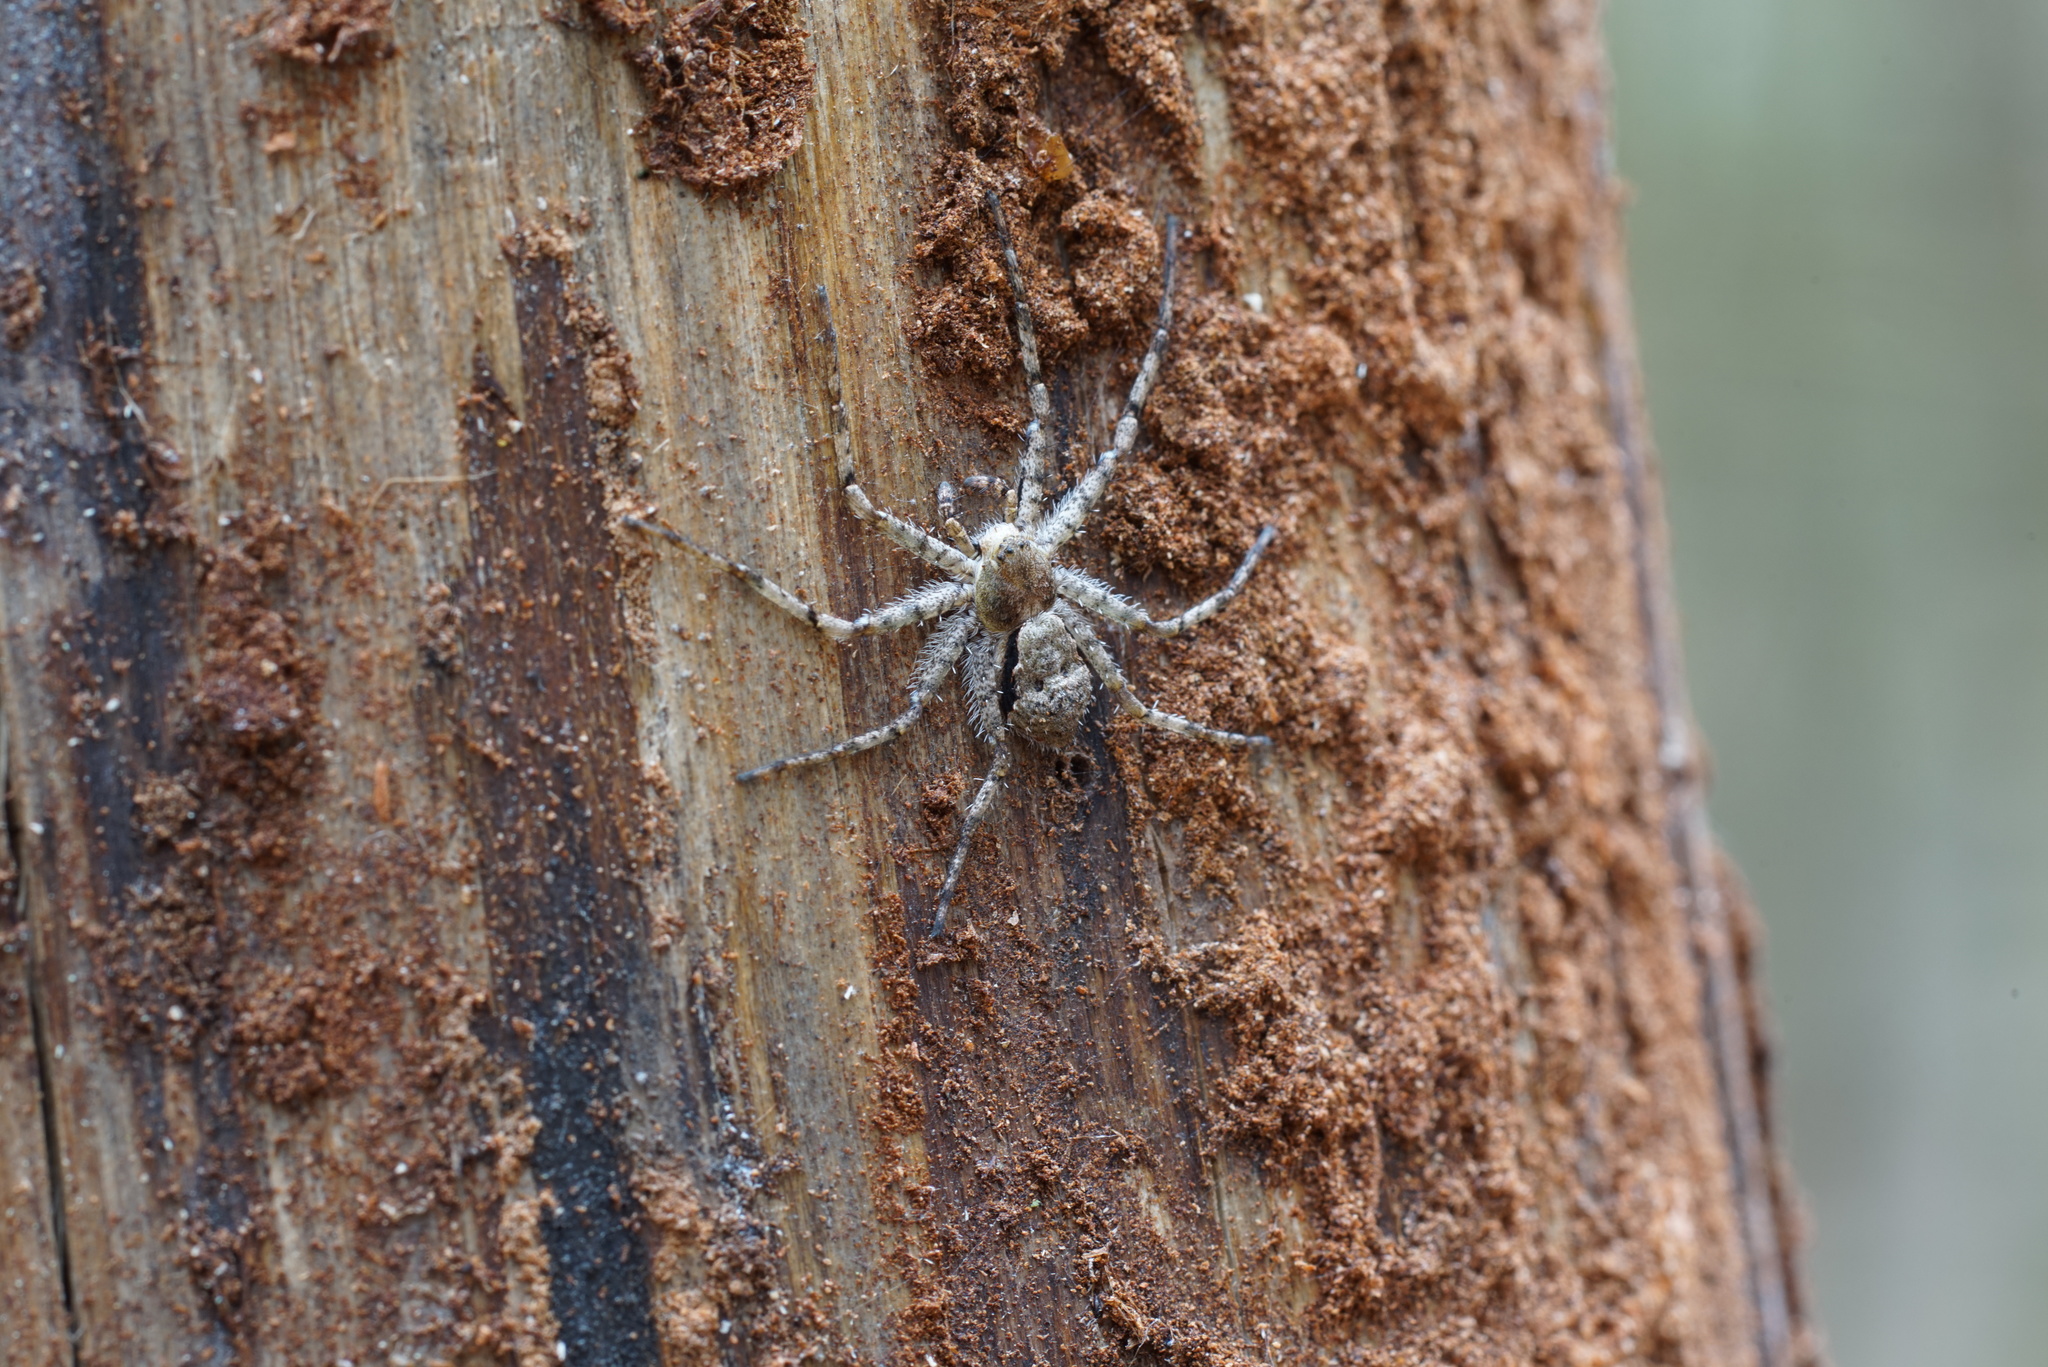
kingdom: Animalia
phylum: Arthropoda
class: Arachnida
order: Araneae
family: Philodromidae
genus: Philodromus
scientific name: Philodromus margaritatus
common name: Lichen running-spider
